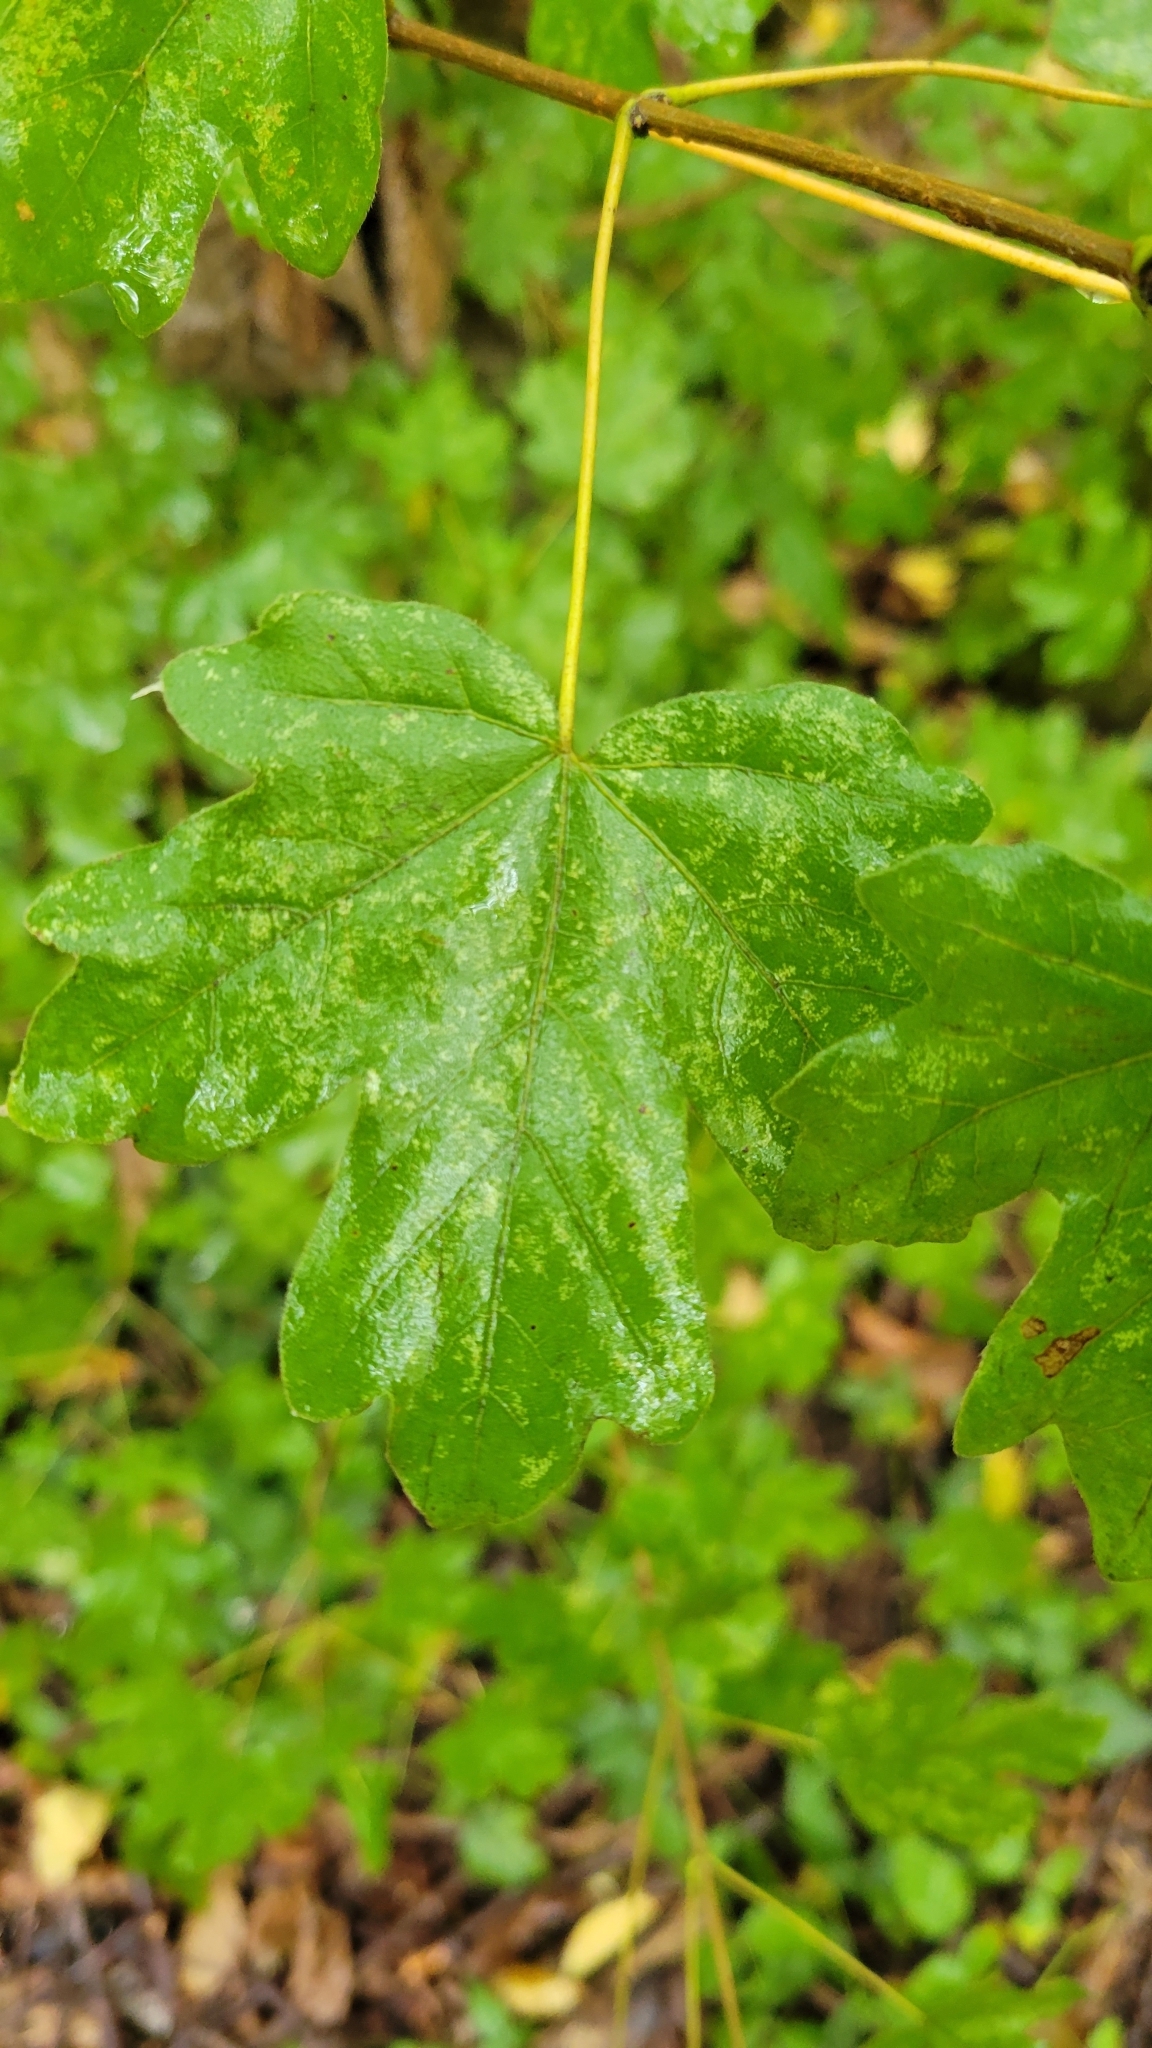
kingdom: Plantae
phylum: Tracheophyta
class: Magnoliopsida
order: Sapindales
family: Sapindaceae
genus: Acer
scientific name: Acer campestre
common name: Field maple
